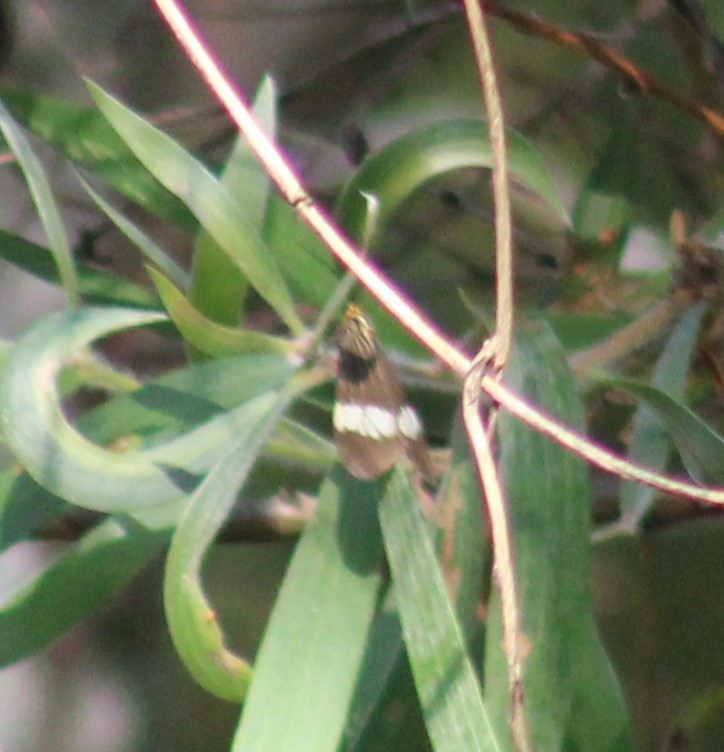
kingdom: Animalia
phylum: Arthropoda
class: Insecta
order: Lepidoptera
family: Erebidae
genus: Nyctemera
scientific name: Nyctemera baulus
